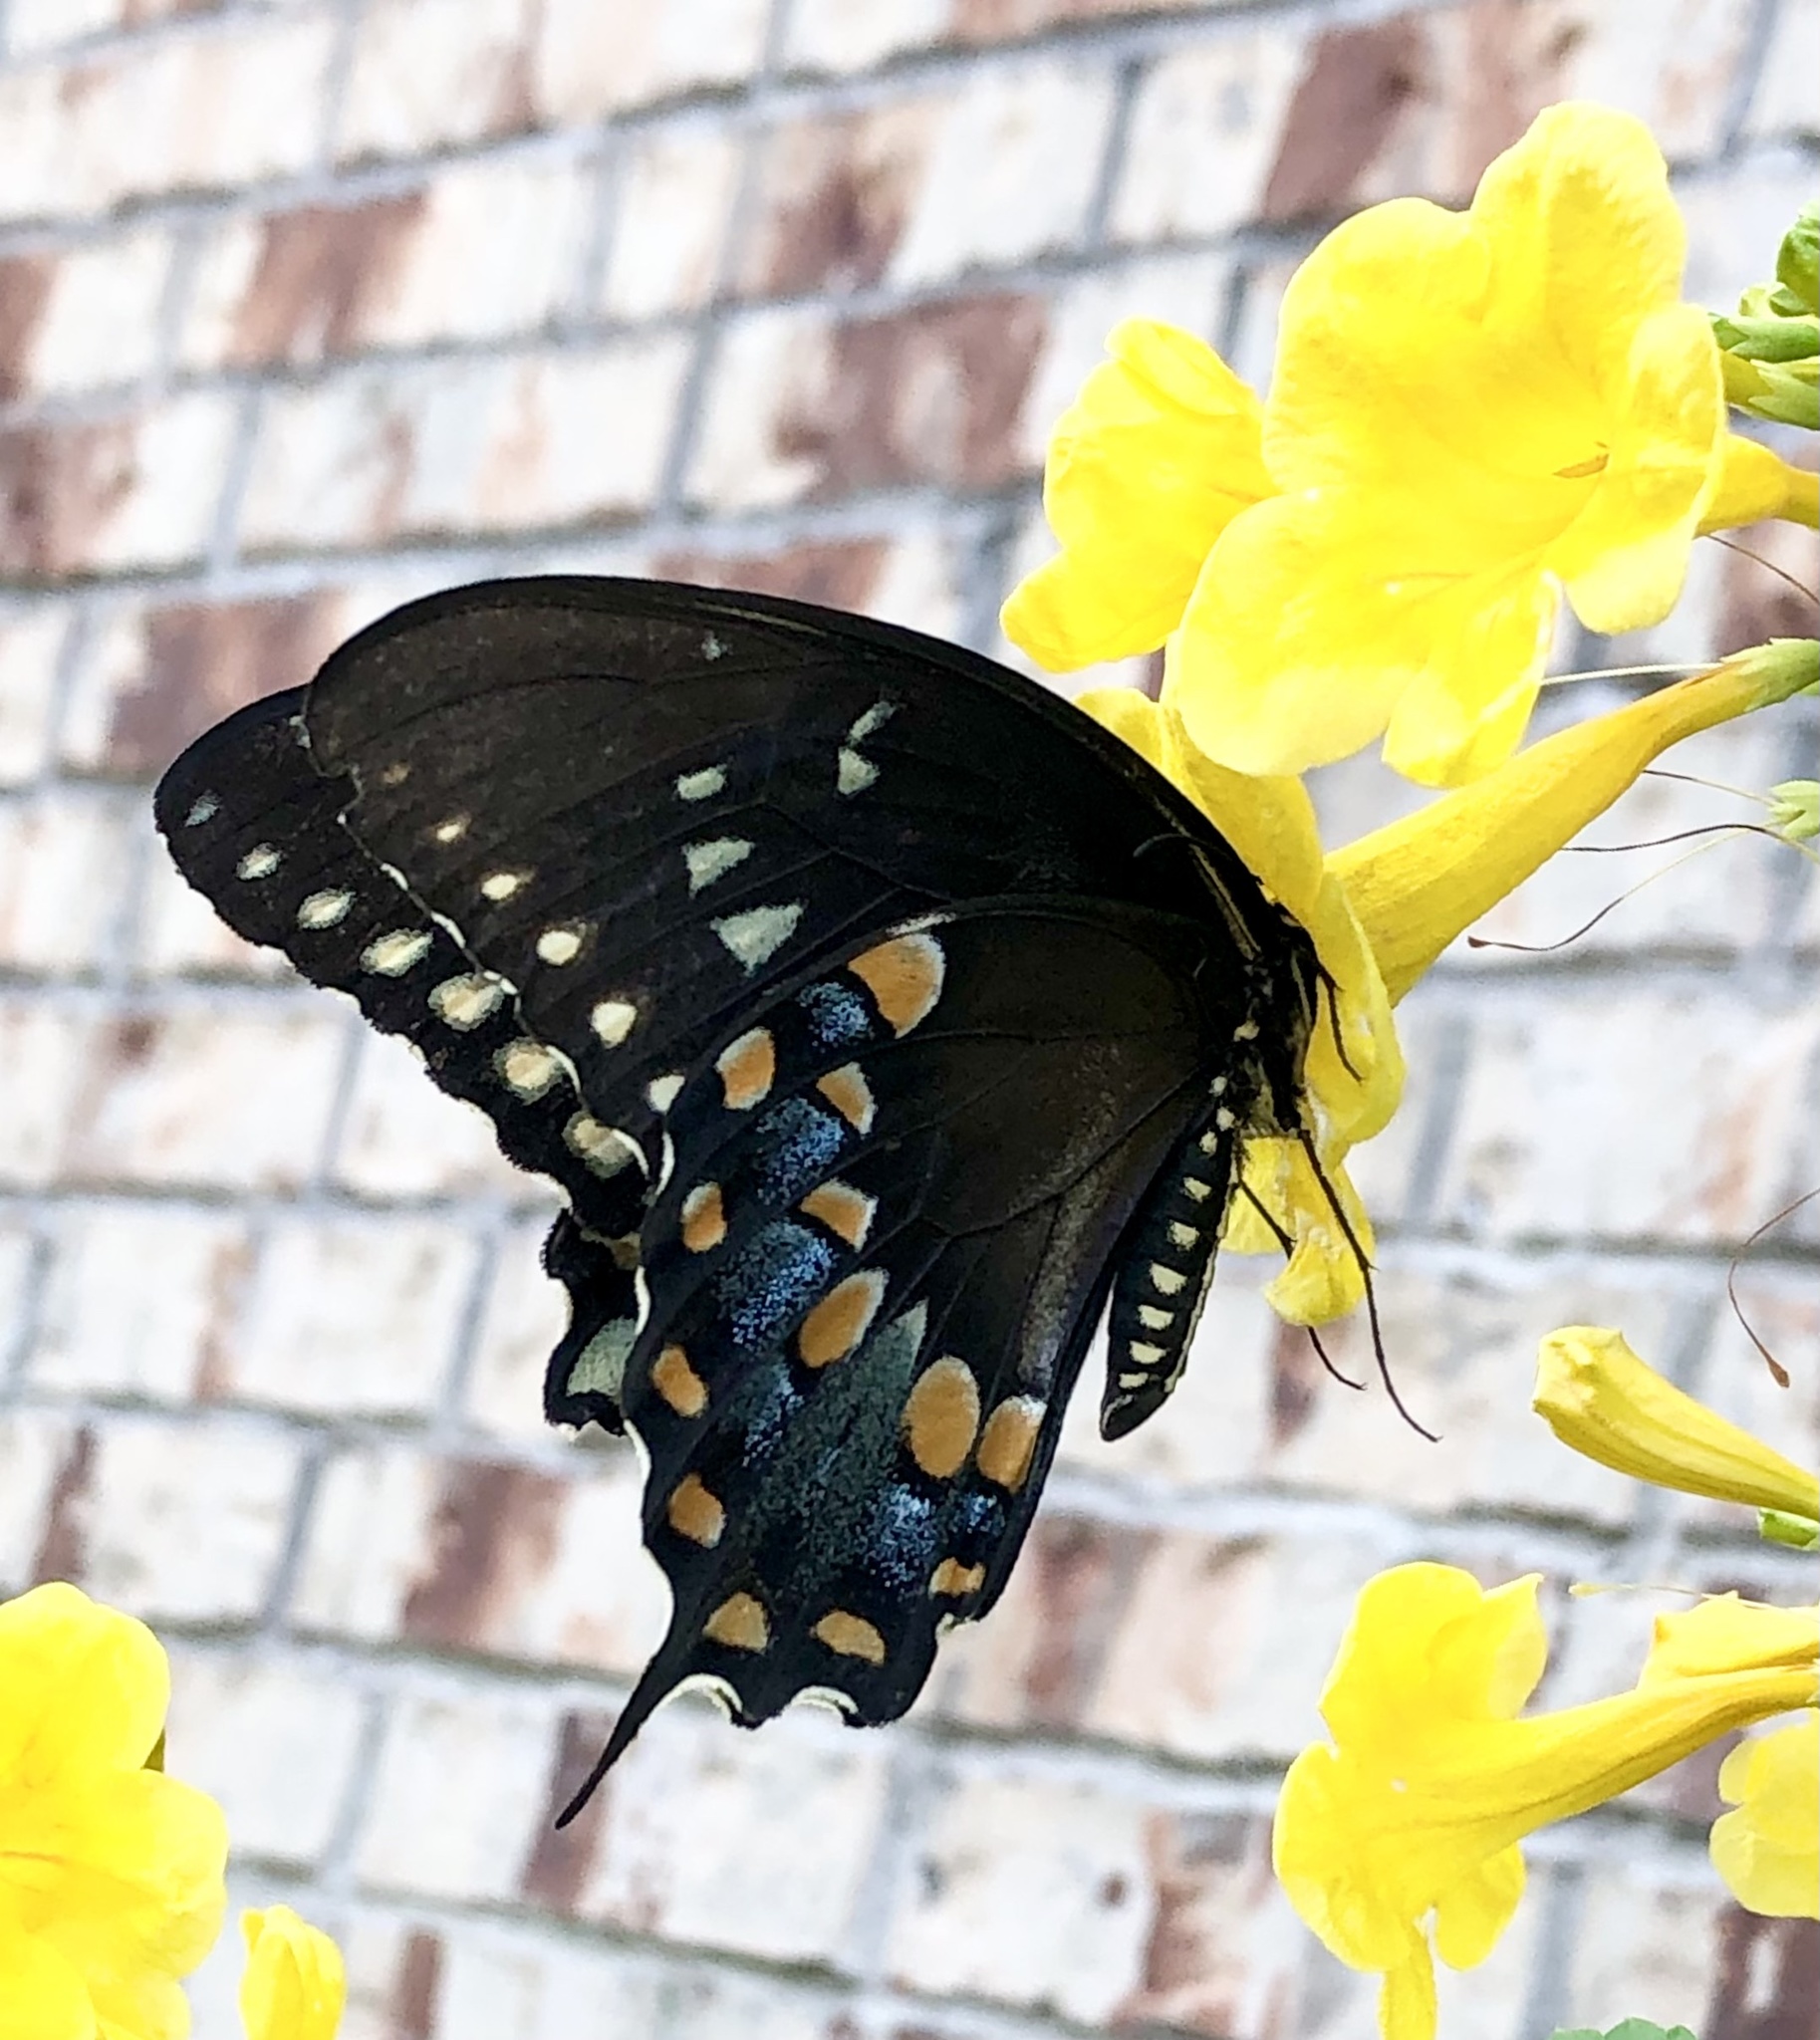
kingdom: Animalia
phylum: Arthropoda
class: Insecta
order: Lepidoptera
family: Papilionidae
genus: Papilio
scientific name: Papilio troilus
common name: Spicebush swallowtail
